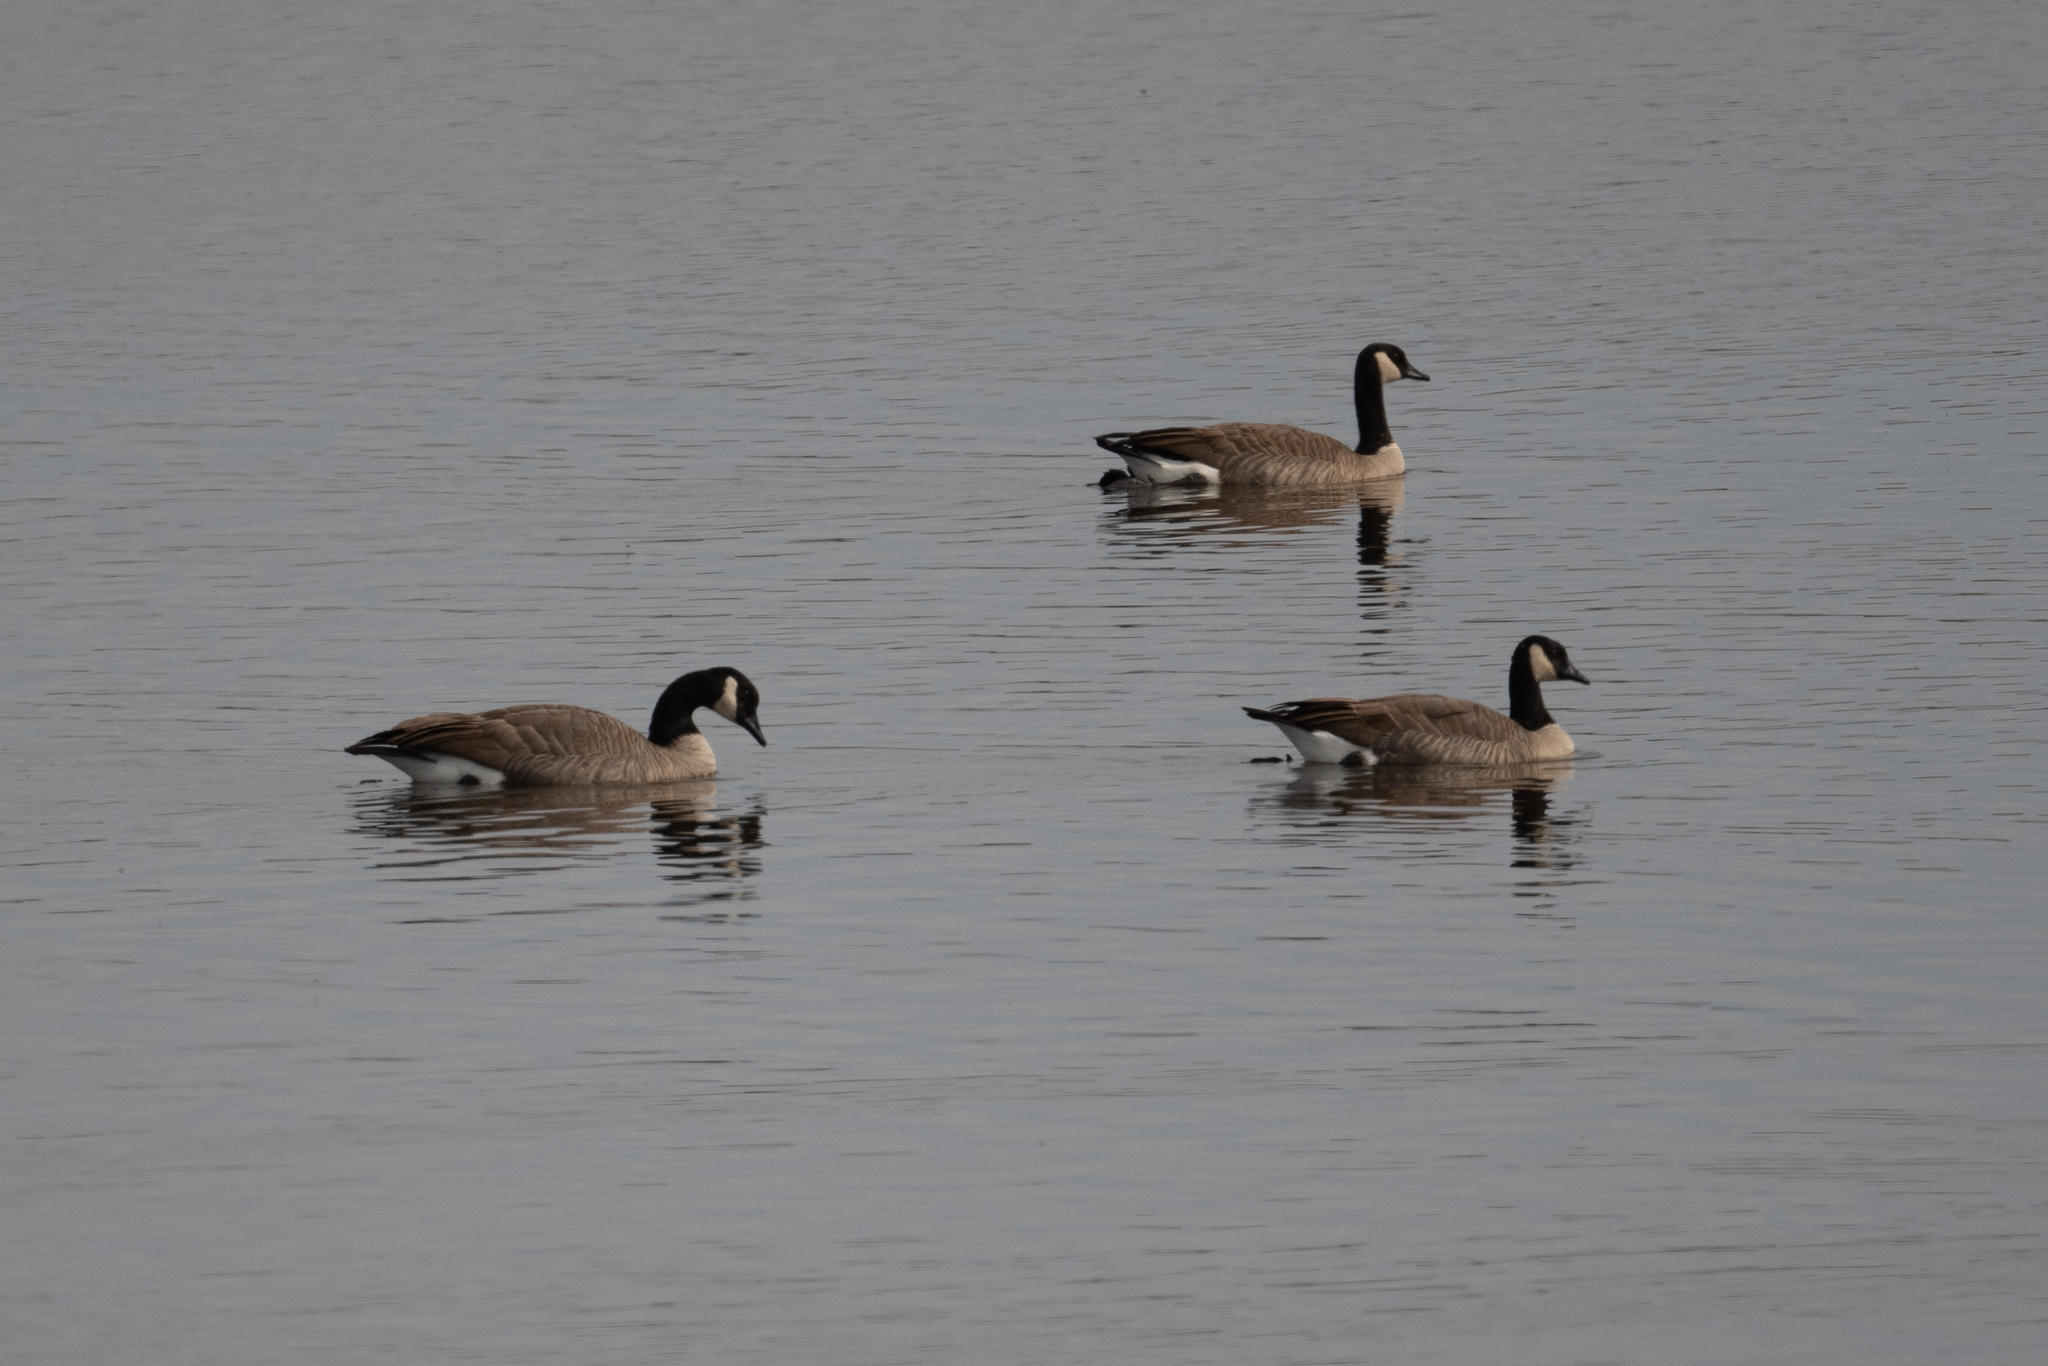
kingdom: Animalia
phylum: Chordata
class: Aves
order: Anseriformes
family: Anatidae
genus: Branta
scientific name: Branta canadensis
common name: Canada goose
